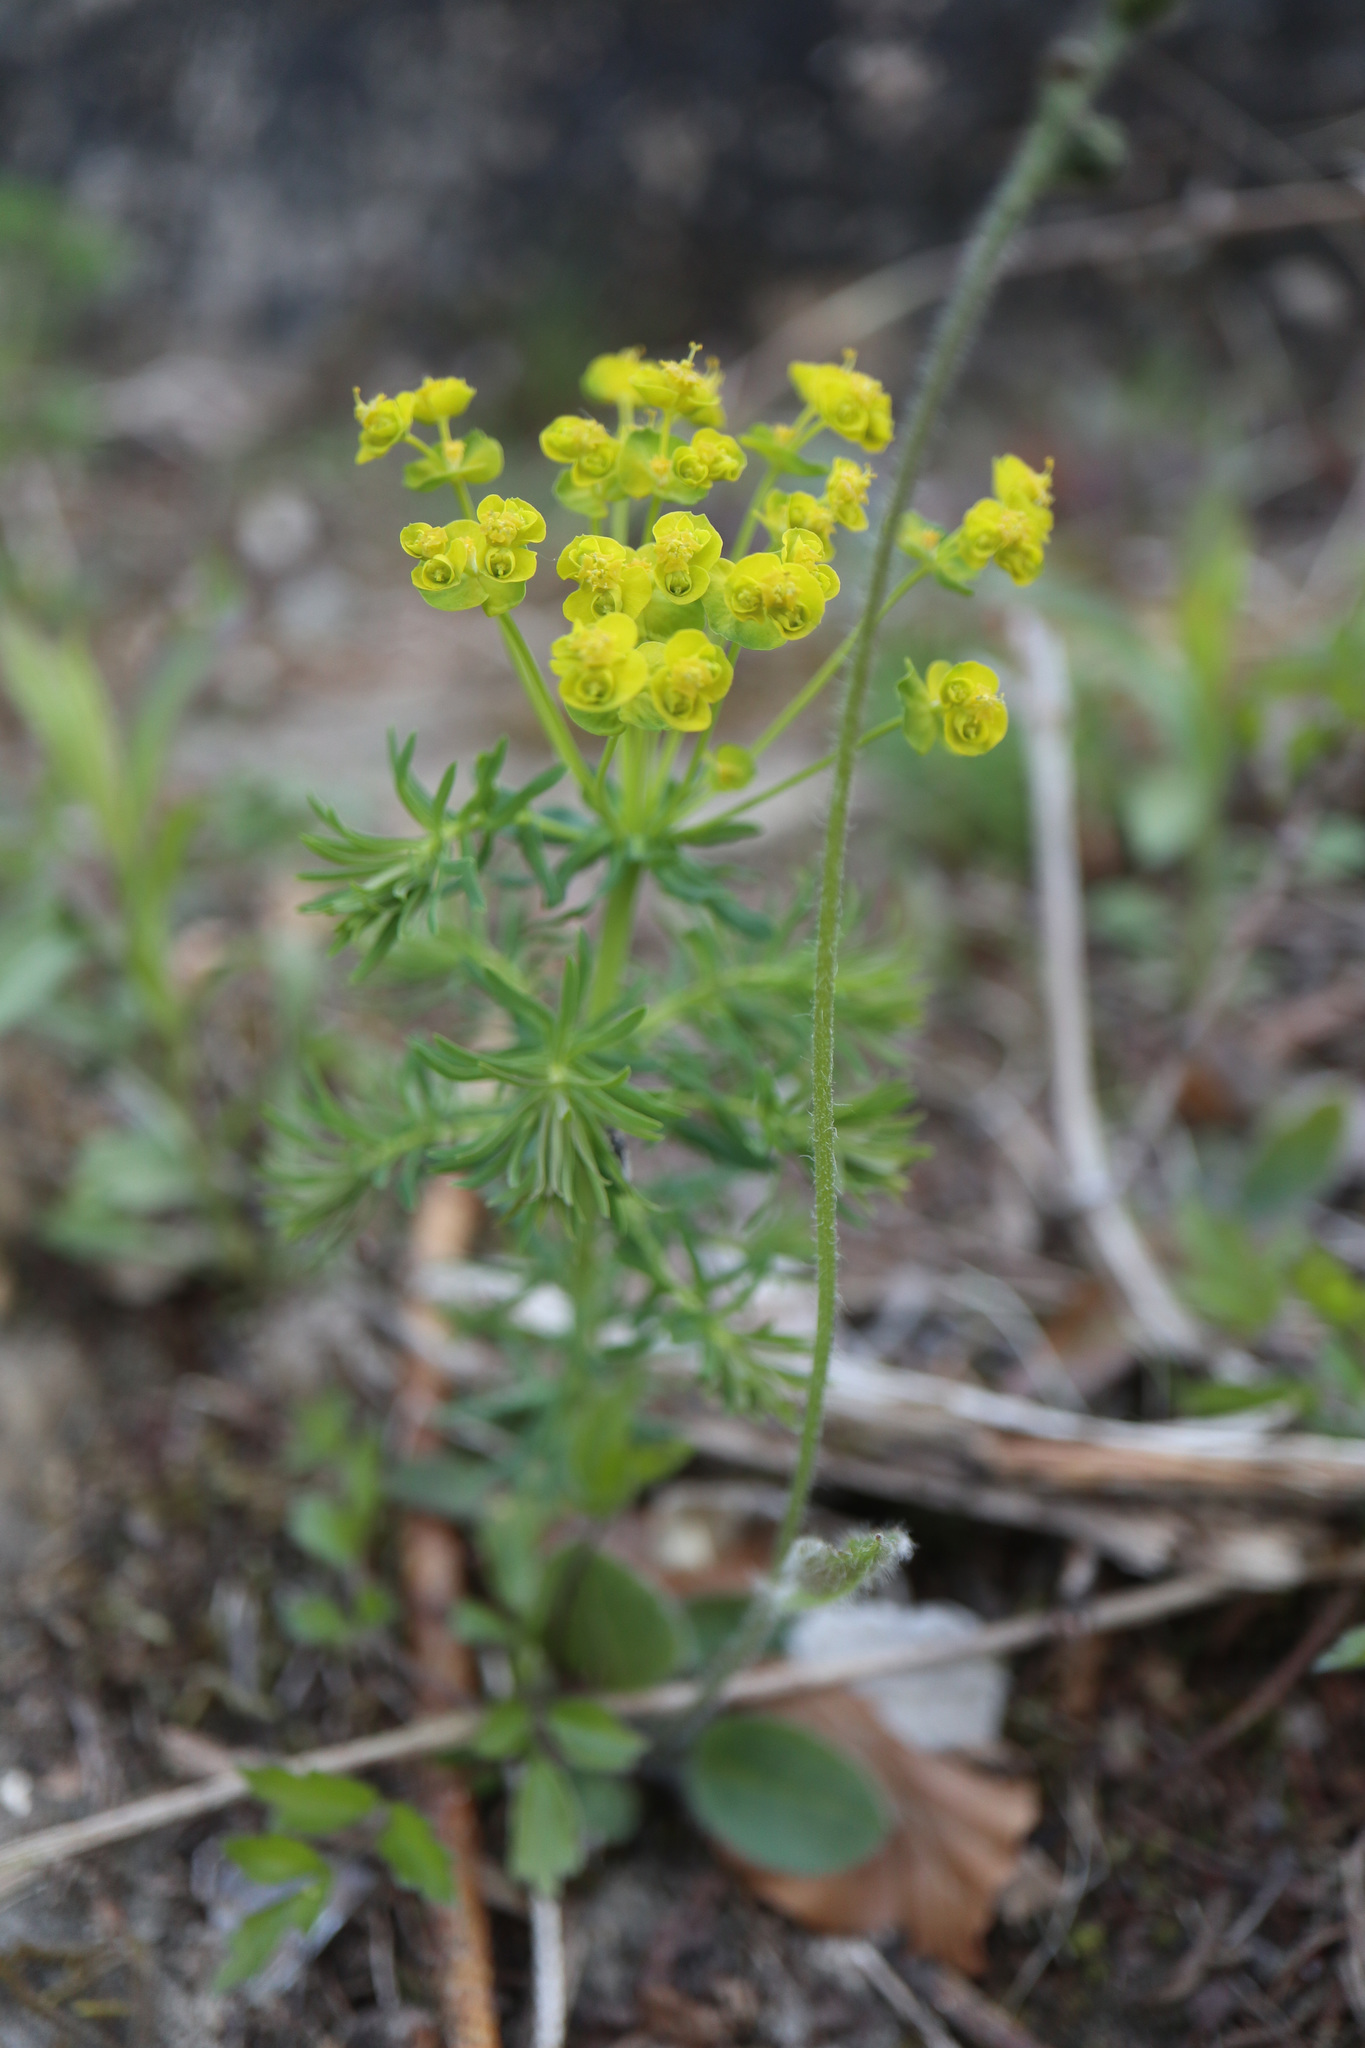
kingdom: Plantae
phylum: Tracheophyta
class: Magnoliopsida
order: Malpighiales
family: Euphorbiaceae
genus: Euphorbia
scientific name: Euphorbia cyparissias
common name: Cypress spurge
